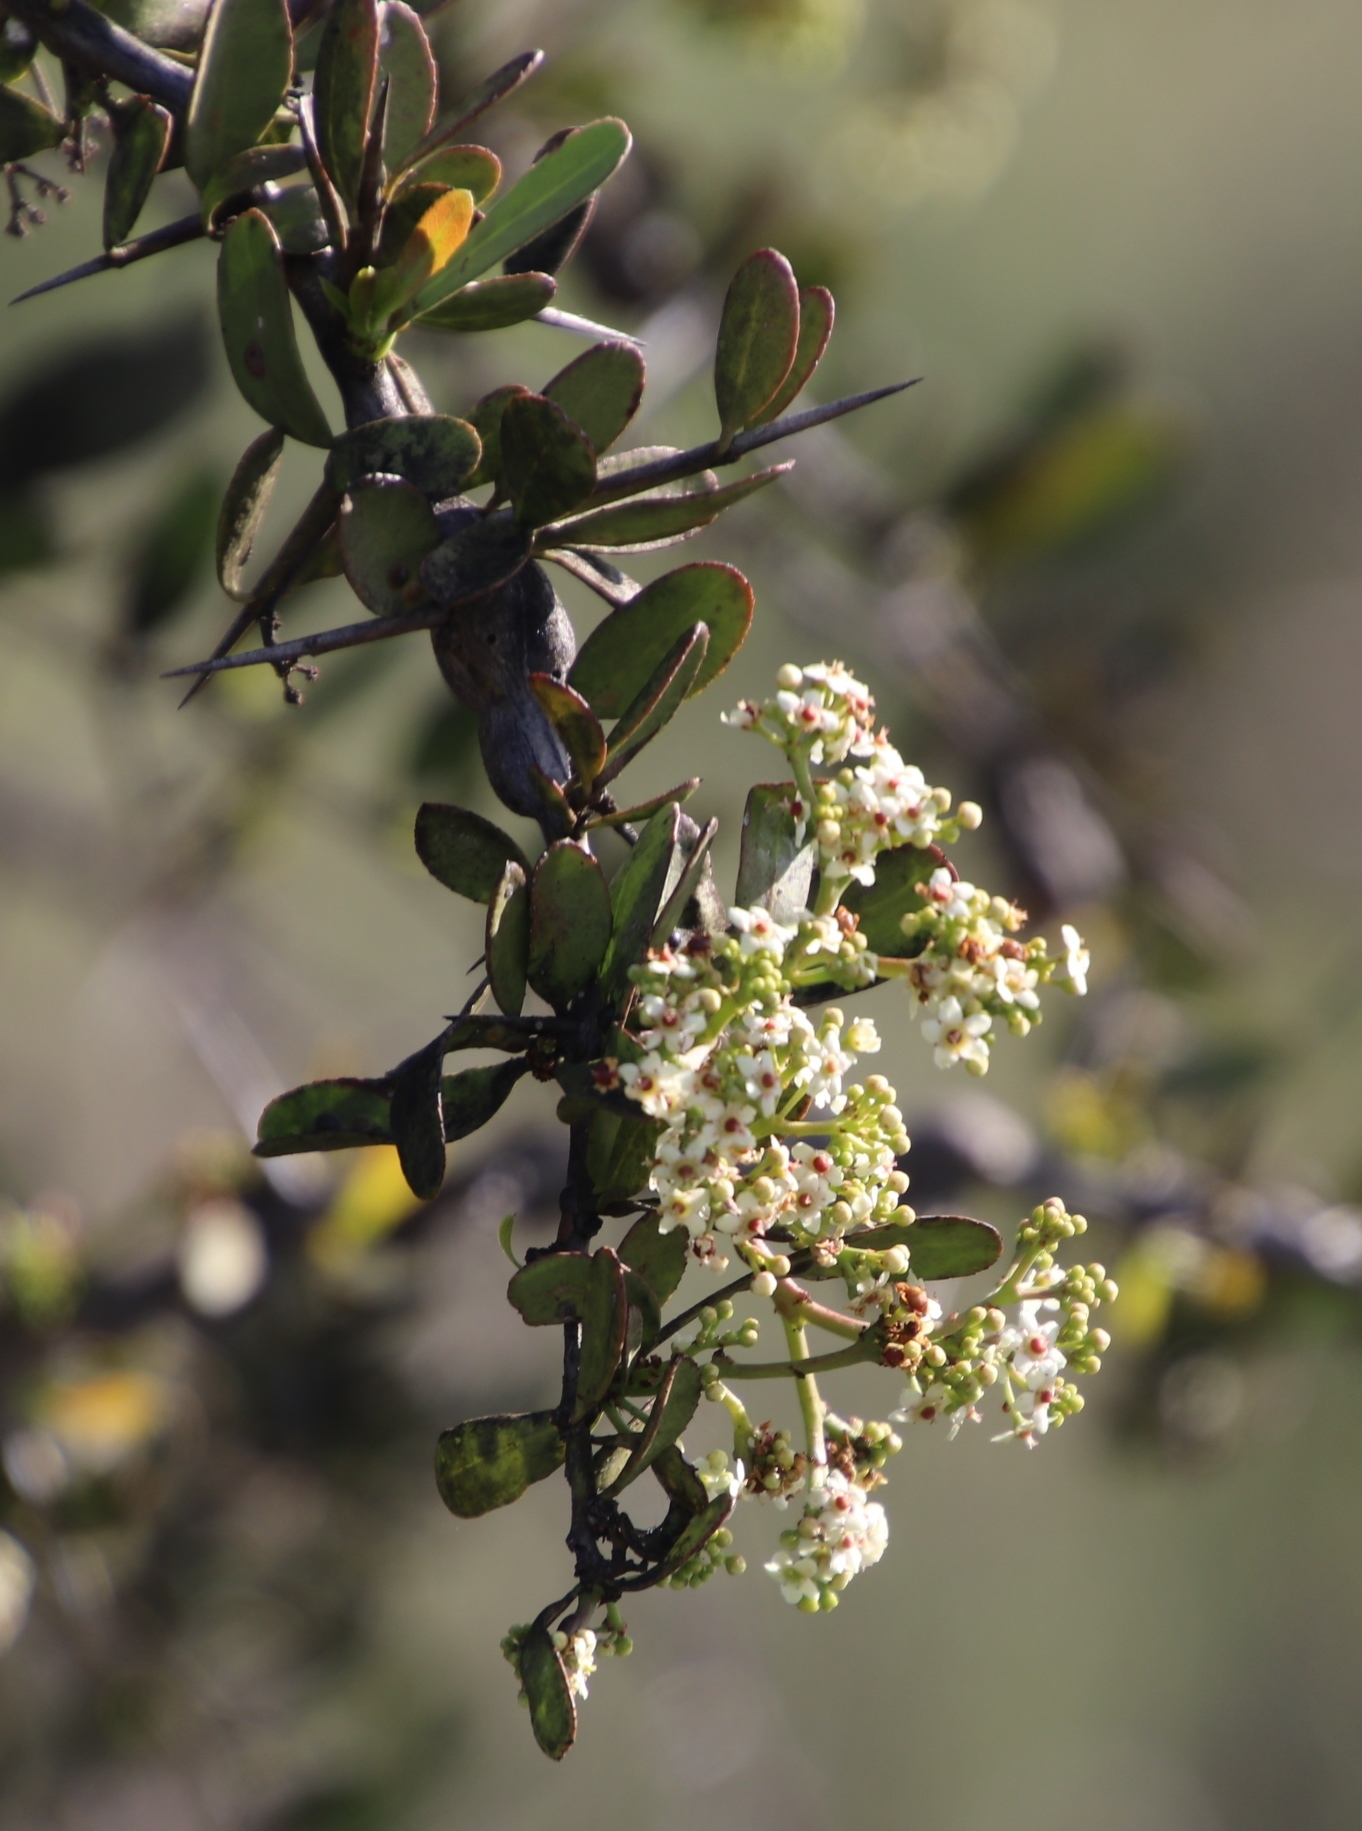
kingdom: Plantae
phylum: Tracheophyta
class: Magnoliopsida
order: Celastrales
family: Celastraceae
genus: Gymnosporia
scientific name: Gymnosporia buxifolia
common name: Common spike-thorn
